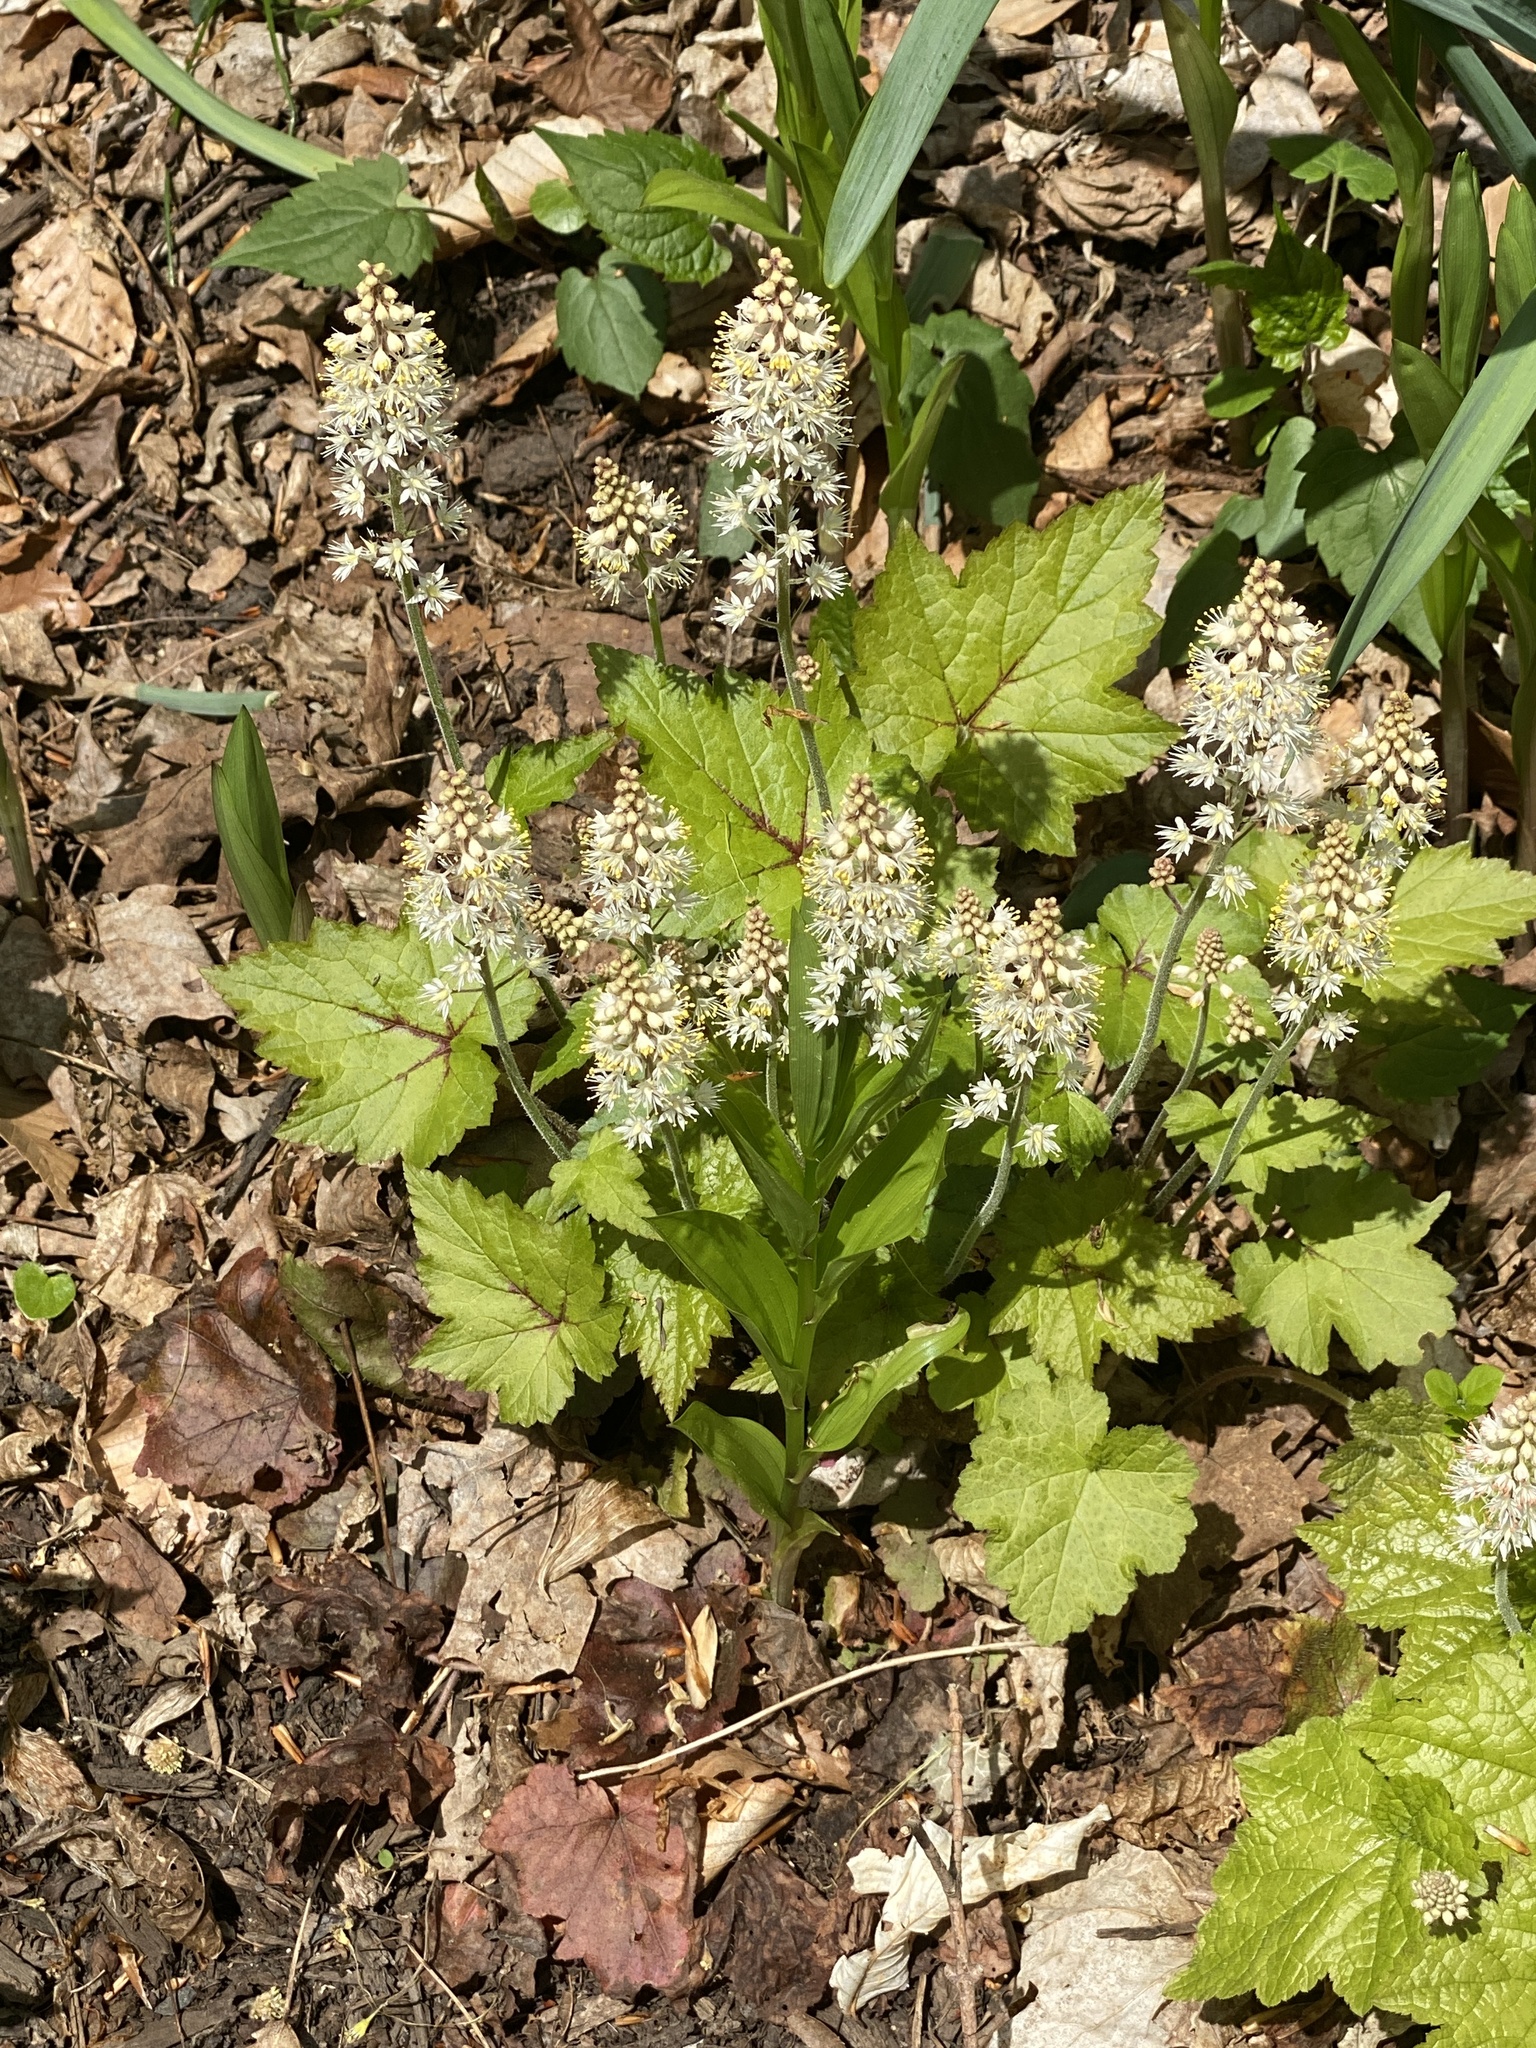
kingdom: Plantae
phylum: Tracheophyta
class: Magnoliopsida
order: Saxifragales
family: Saxifragaceae
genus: Tiarella
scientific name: Tiarella stolonifera
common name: Stoloniferous foamflower
